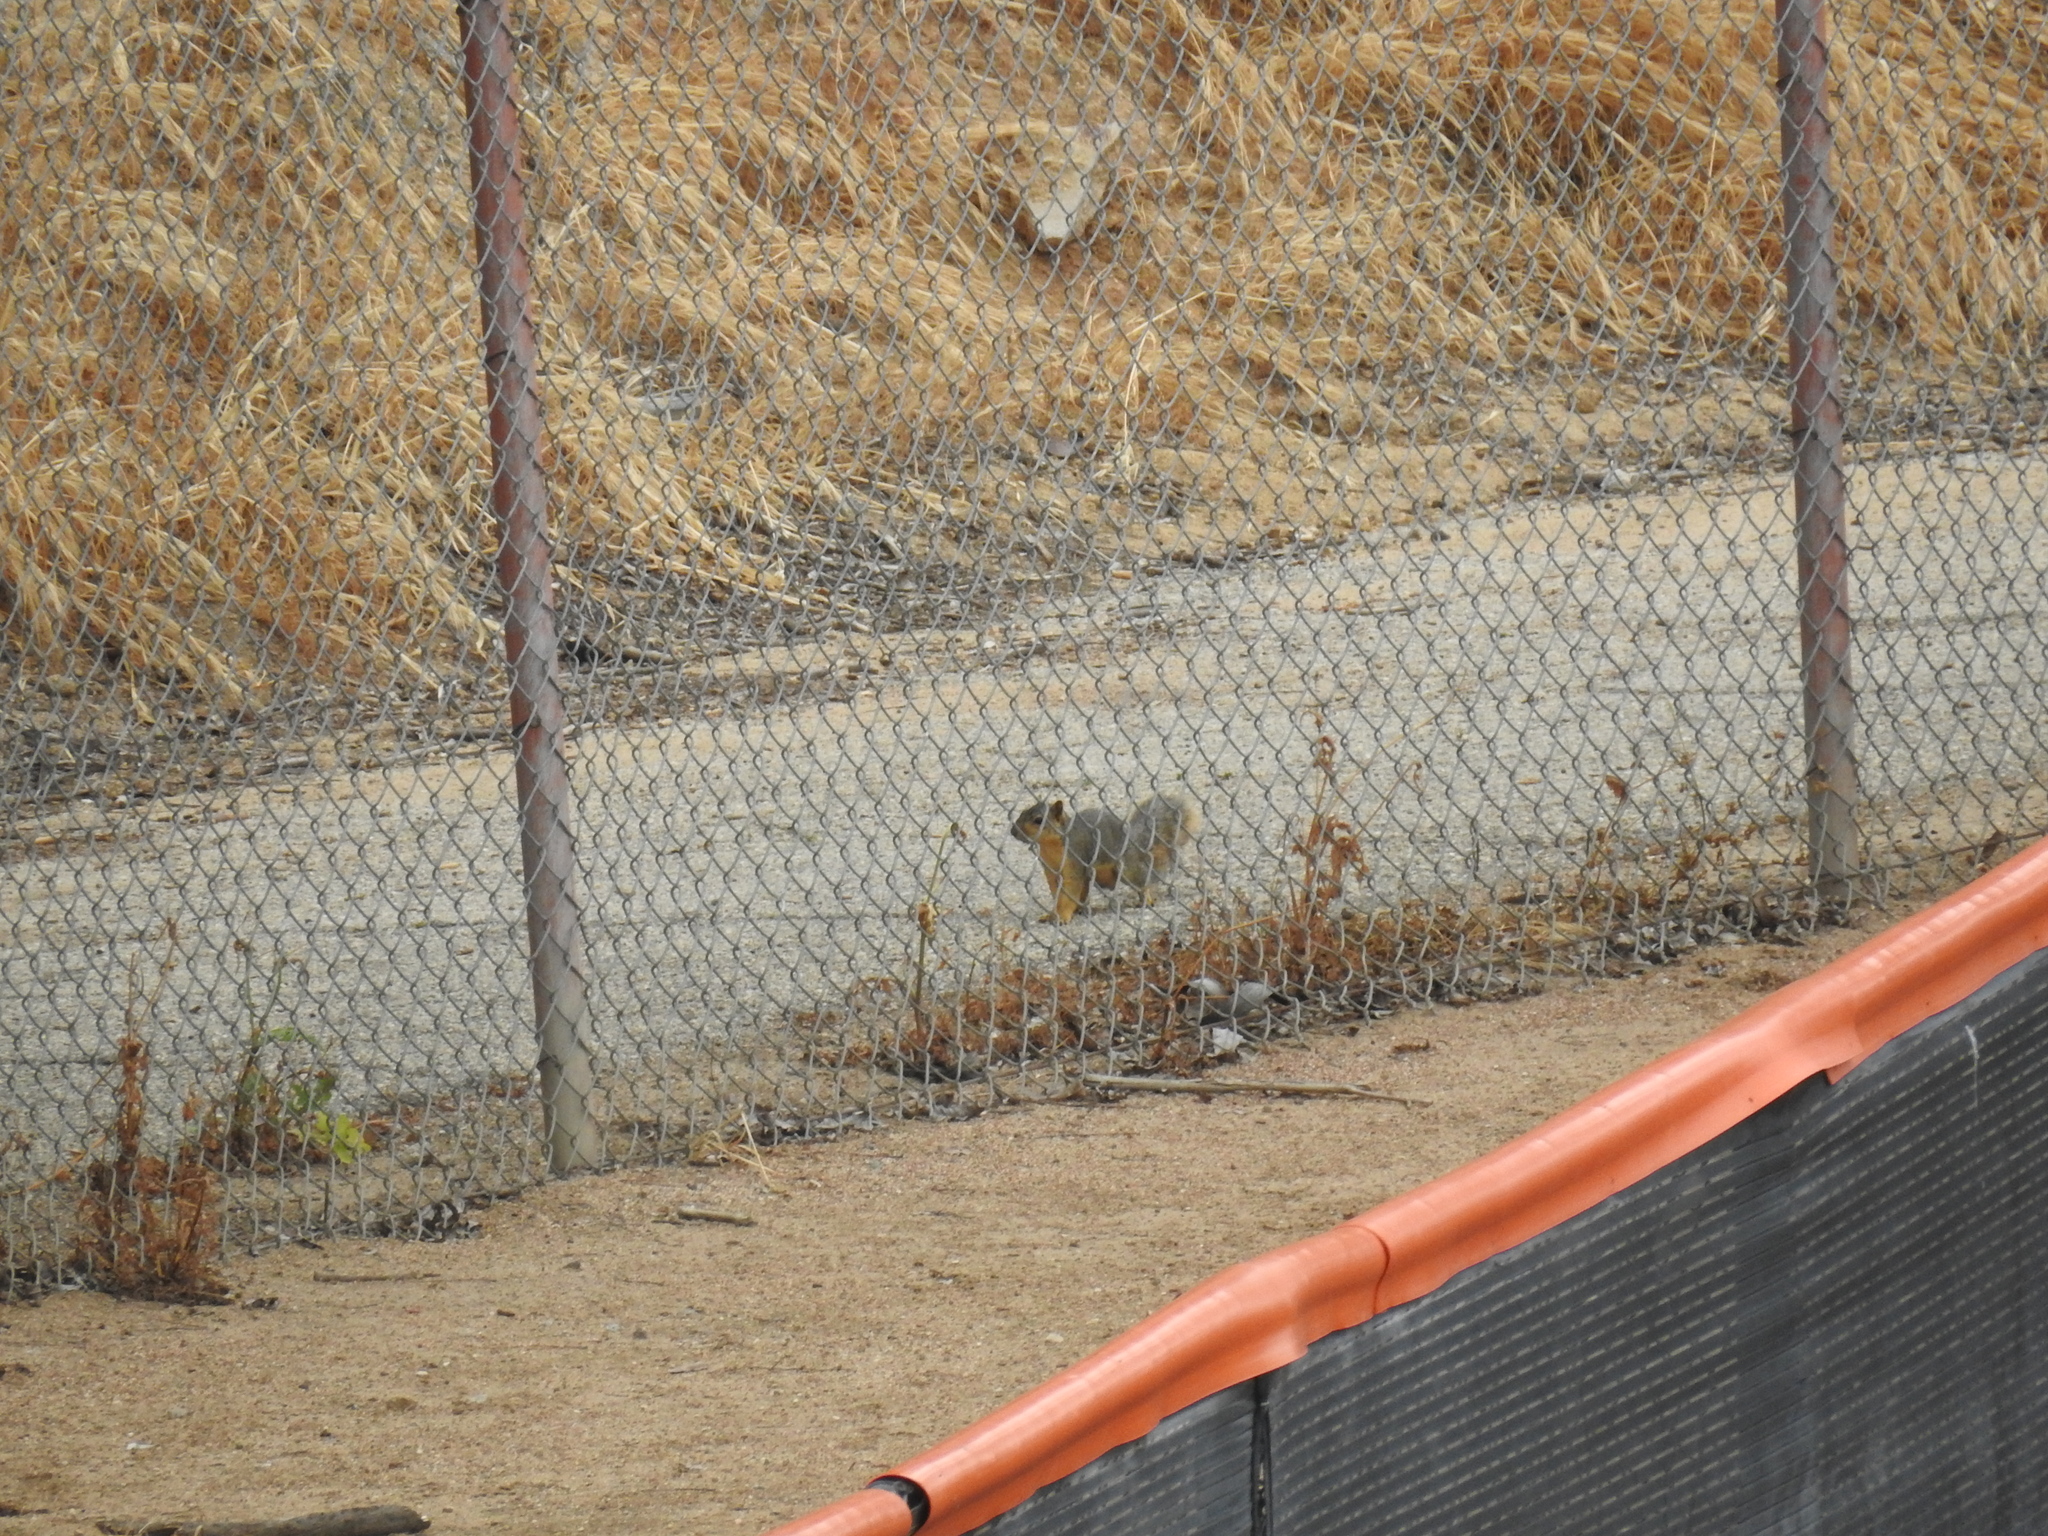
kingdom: Animalia
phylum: Chordata
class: Mammalia
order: Rodentia
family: Sciuridae
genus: Sciurus
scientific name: Sciurus niger
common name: Fox squirrel
